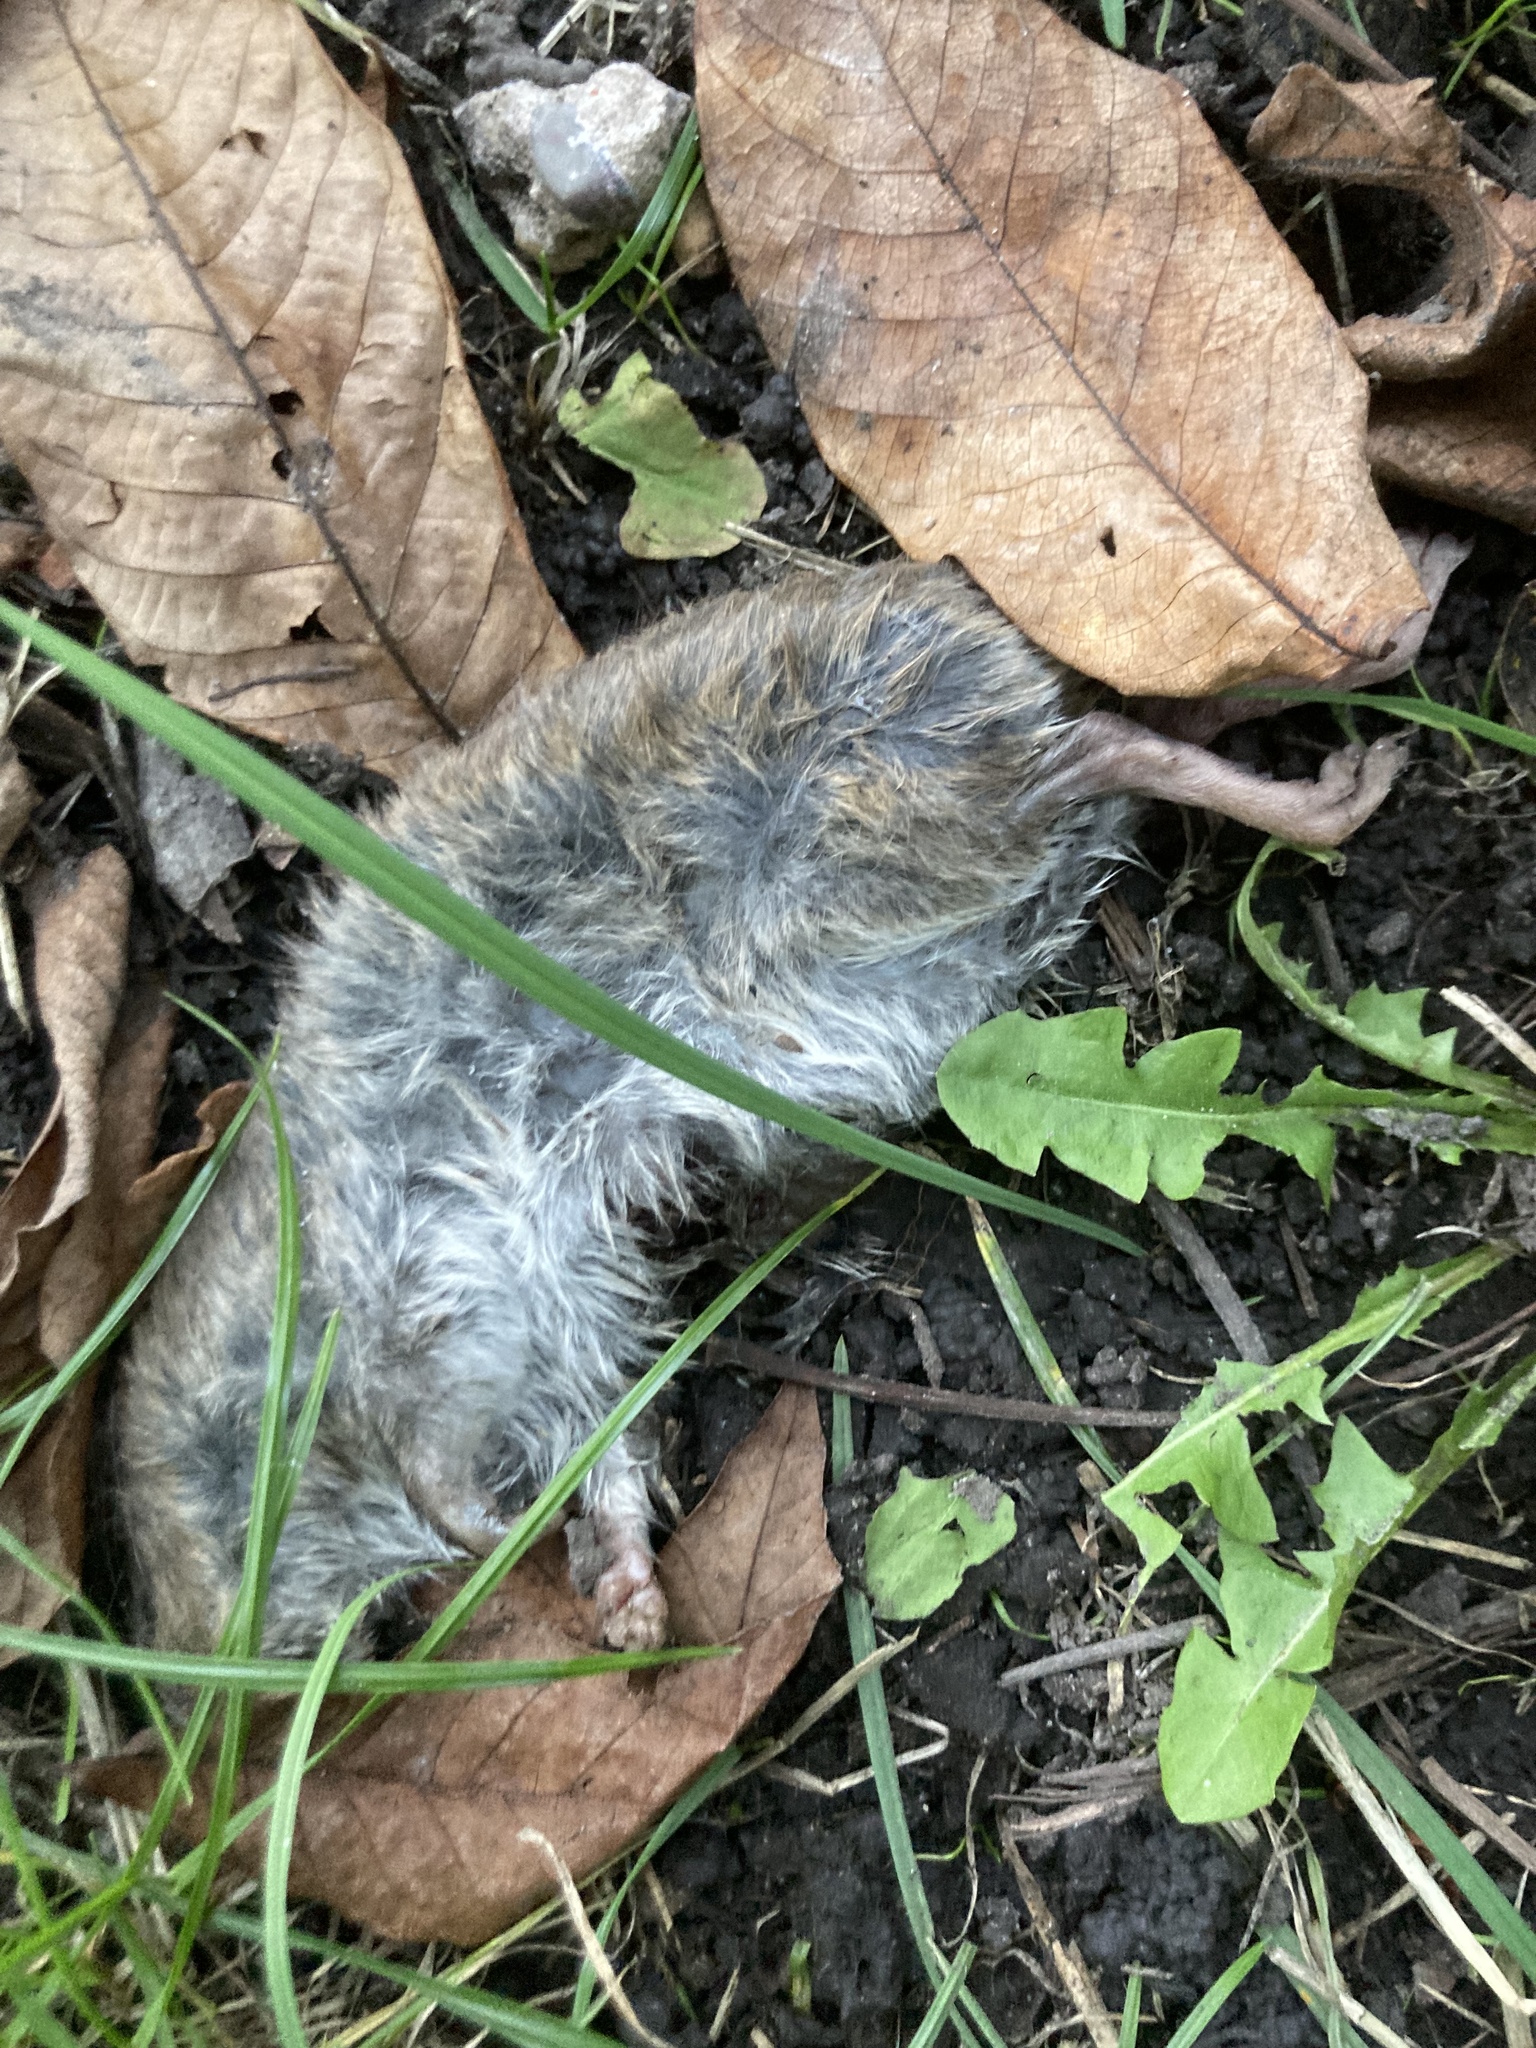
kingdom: Animalia
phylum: Chordata
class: Mammalia
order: Rodentia
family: Cricetidae
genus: Myodes
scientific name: Myodes glareolus
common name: Bank vole
